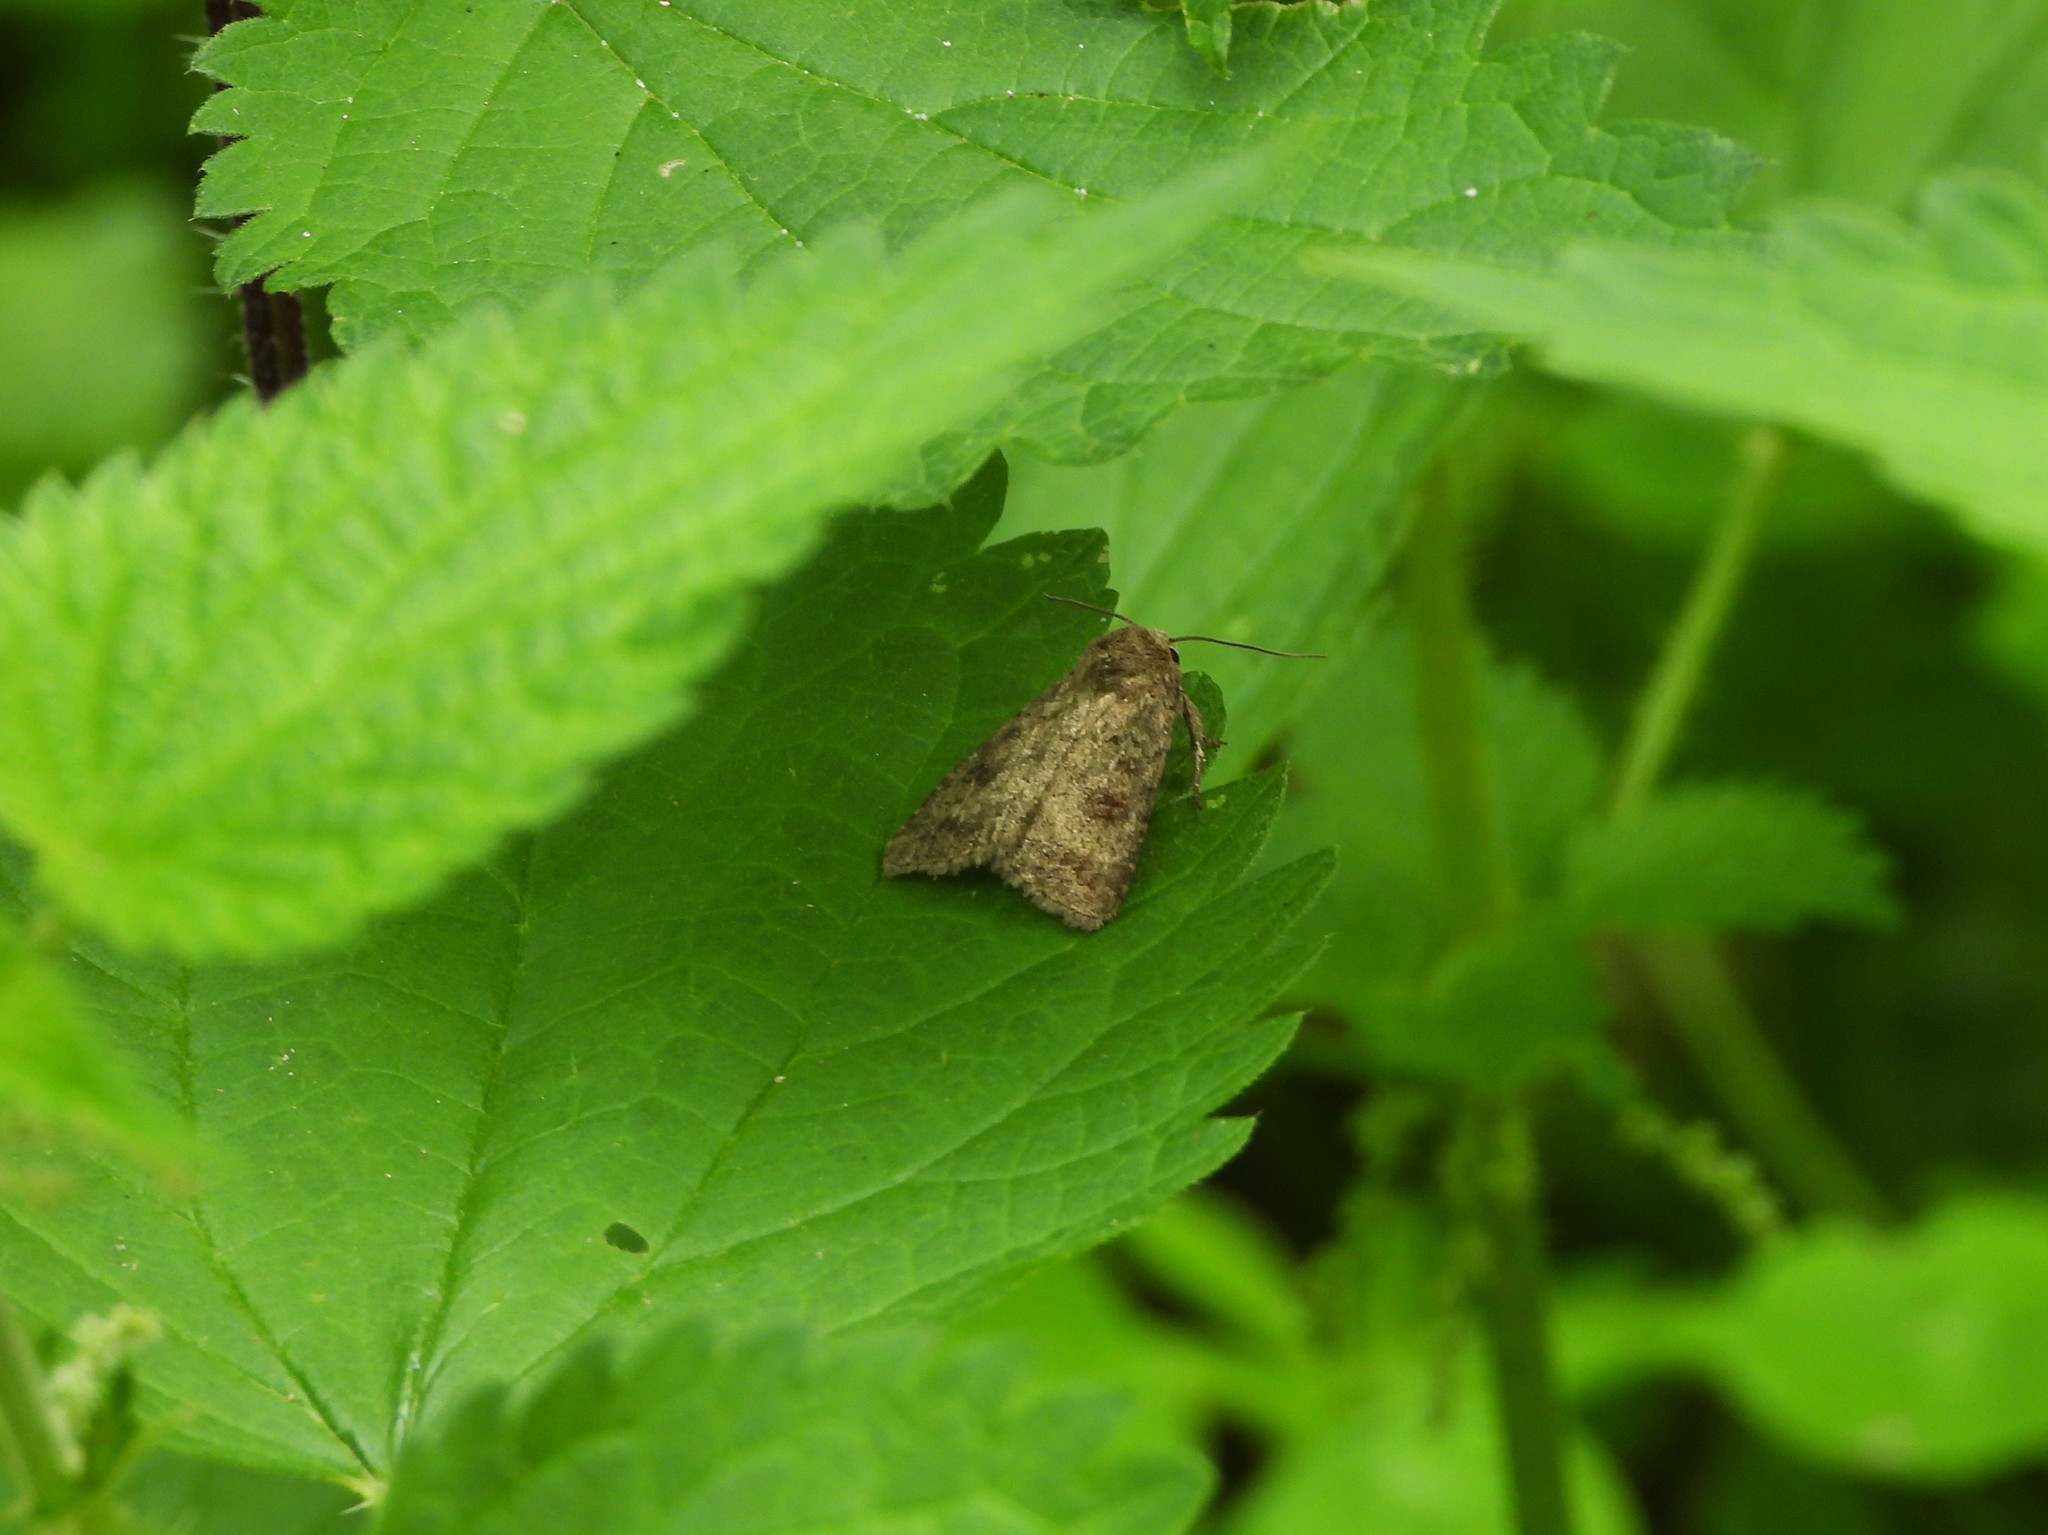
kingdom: Animalia
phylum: Arthropoda
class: Insecta
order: Lepidoptera
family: Noctuidae
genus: Caradrina
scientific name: Caradrina morpheus
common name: Mottled rustic
